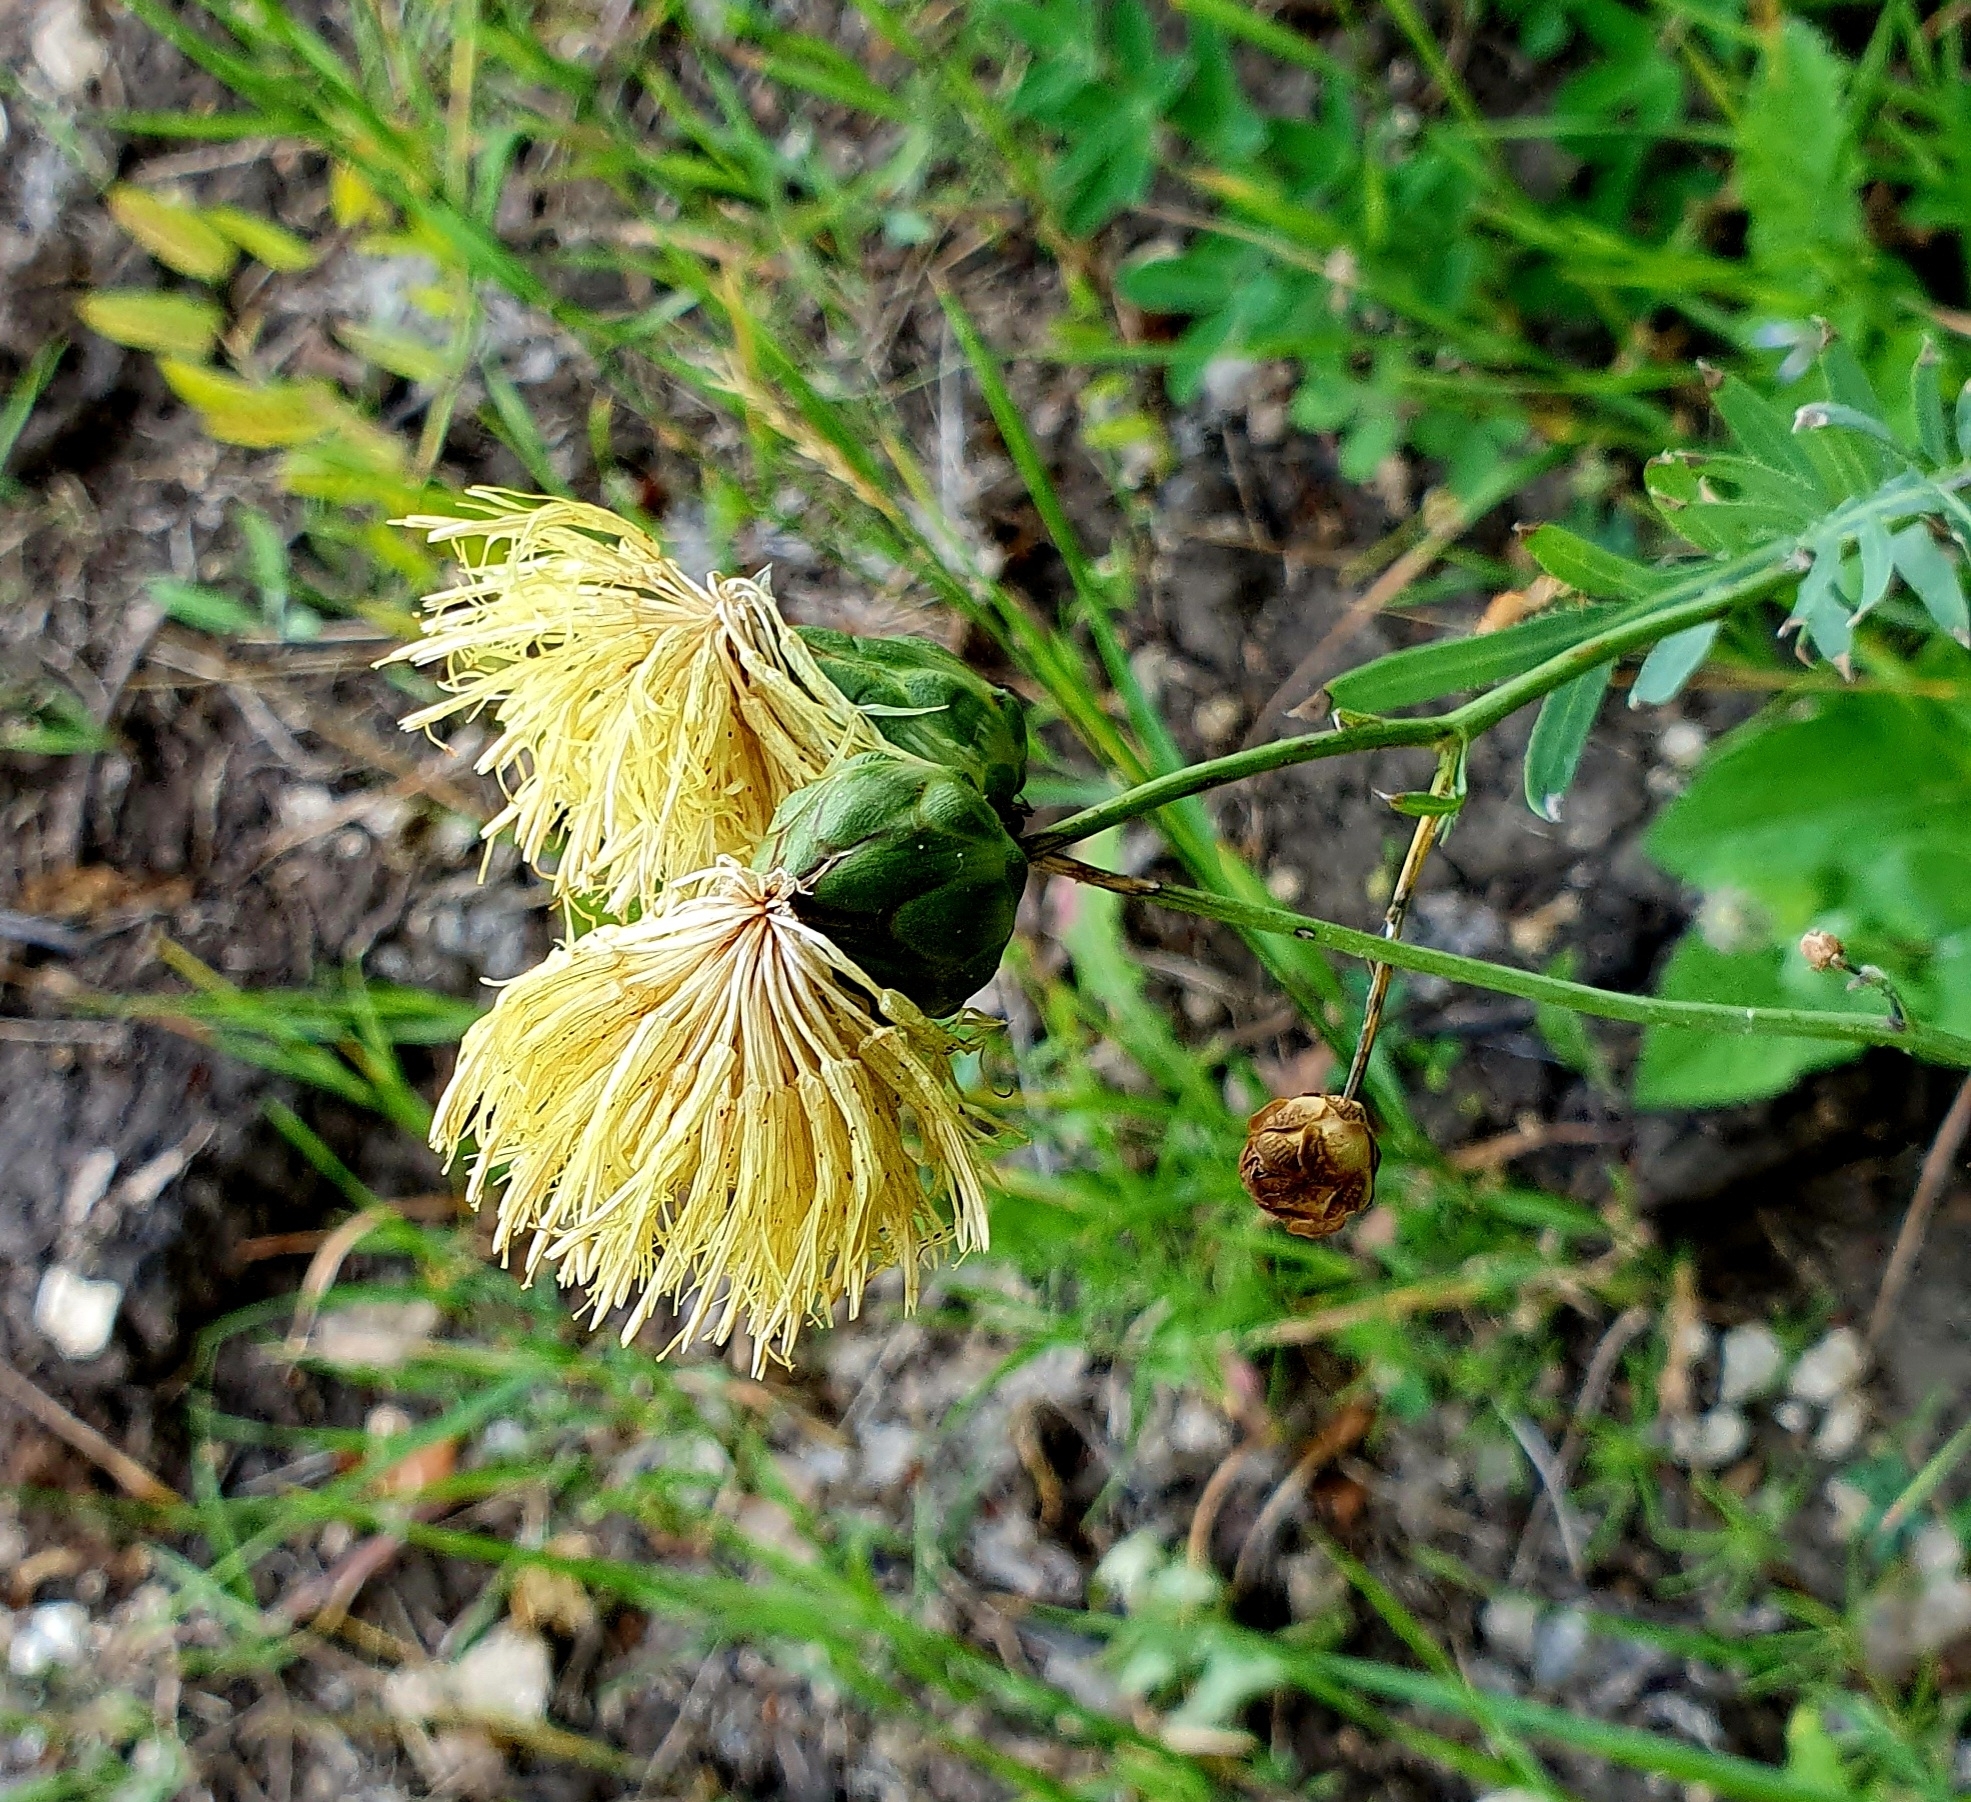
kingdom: Plantae
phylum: Tracheophyta
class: Magnoliopsida
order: Asterales
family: Asteraceae
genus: Rhaponticoides
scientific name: Rhaponticoides ruthenica
